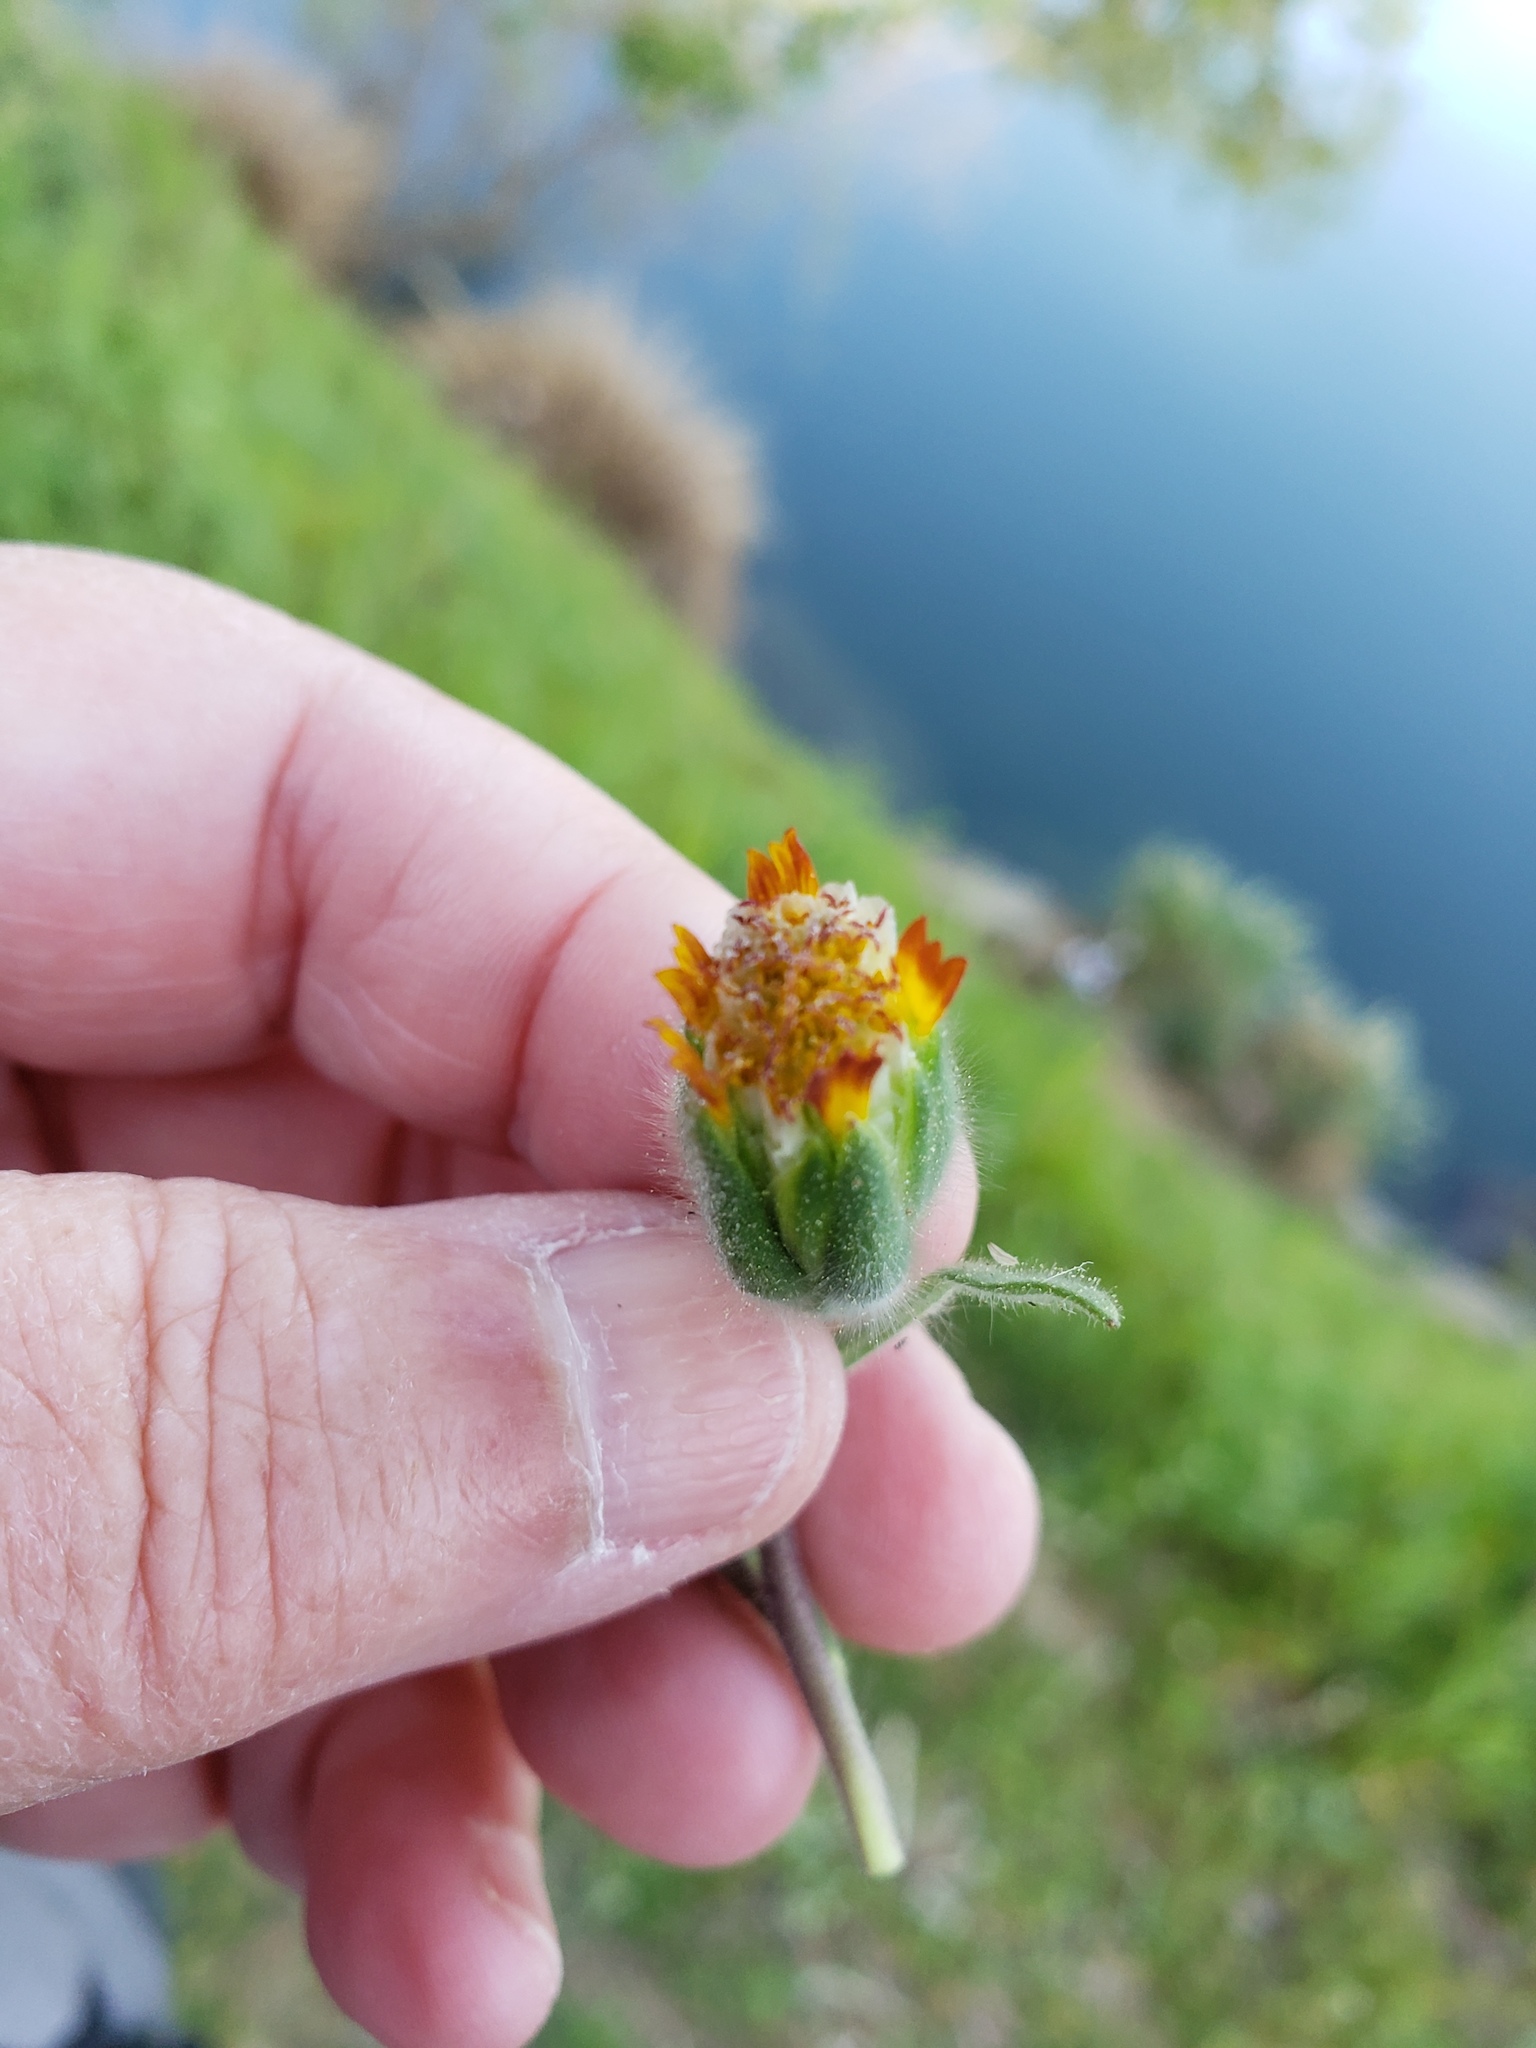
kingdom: Plantae
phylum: Tracheophyta
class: Magnoliopsida
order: Asterales
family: Asteraceae
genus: Achyrachaena
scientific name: Achyrachaena mollis
